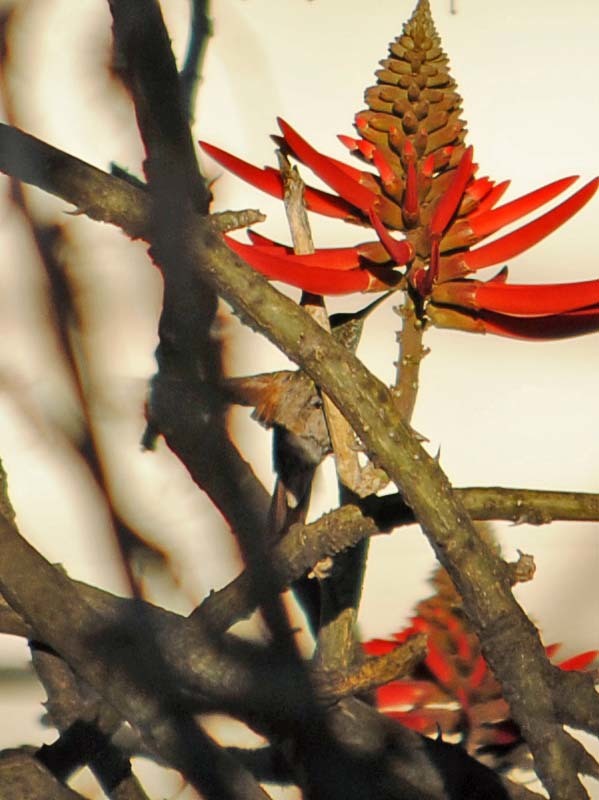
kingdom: Animalia
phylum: Chordata
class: Aves
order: Apodiformes
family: Trochilidae
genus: Saucerottia
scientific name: Saucerottia beryllina
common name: Berylline hummingbird
